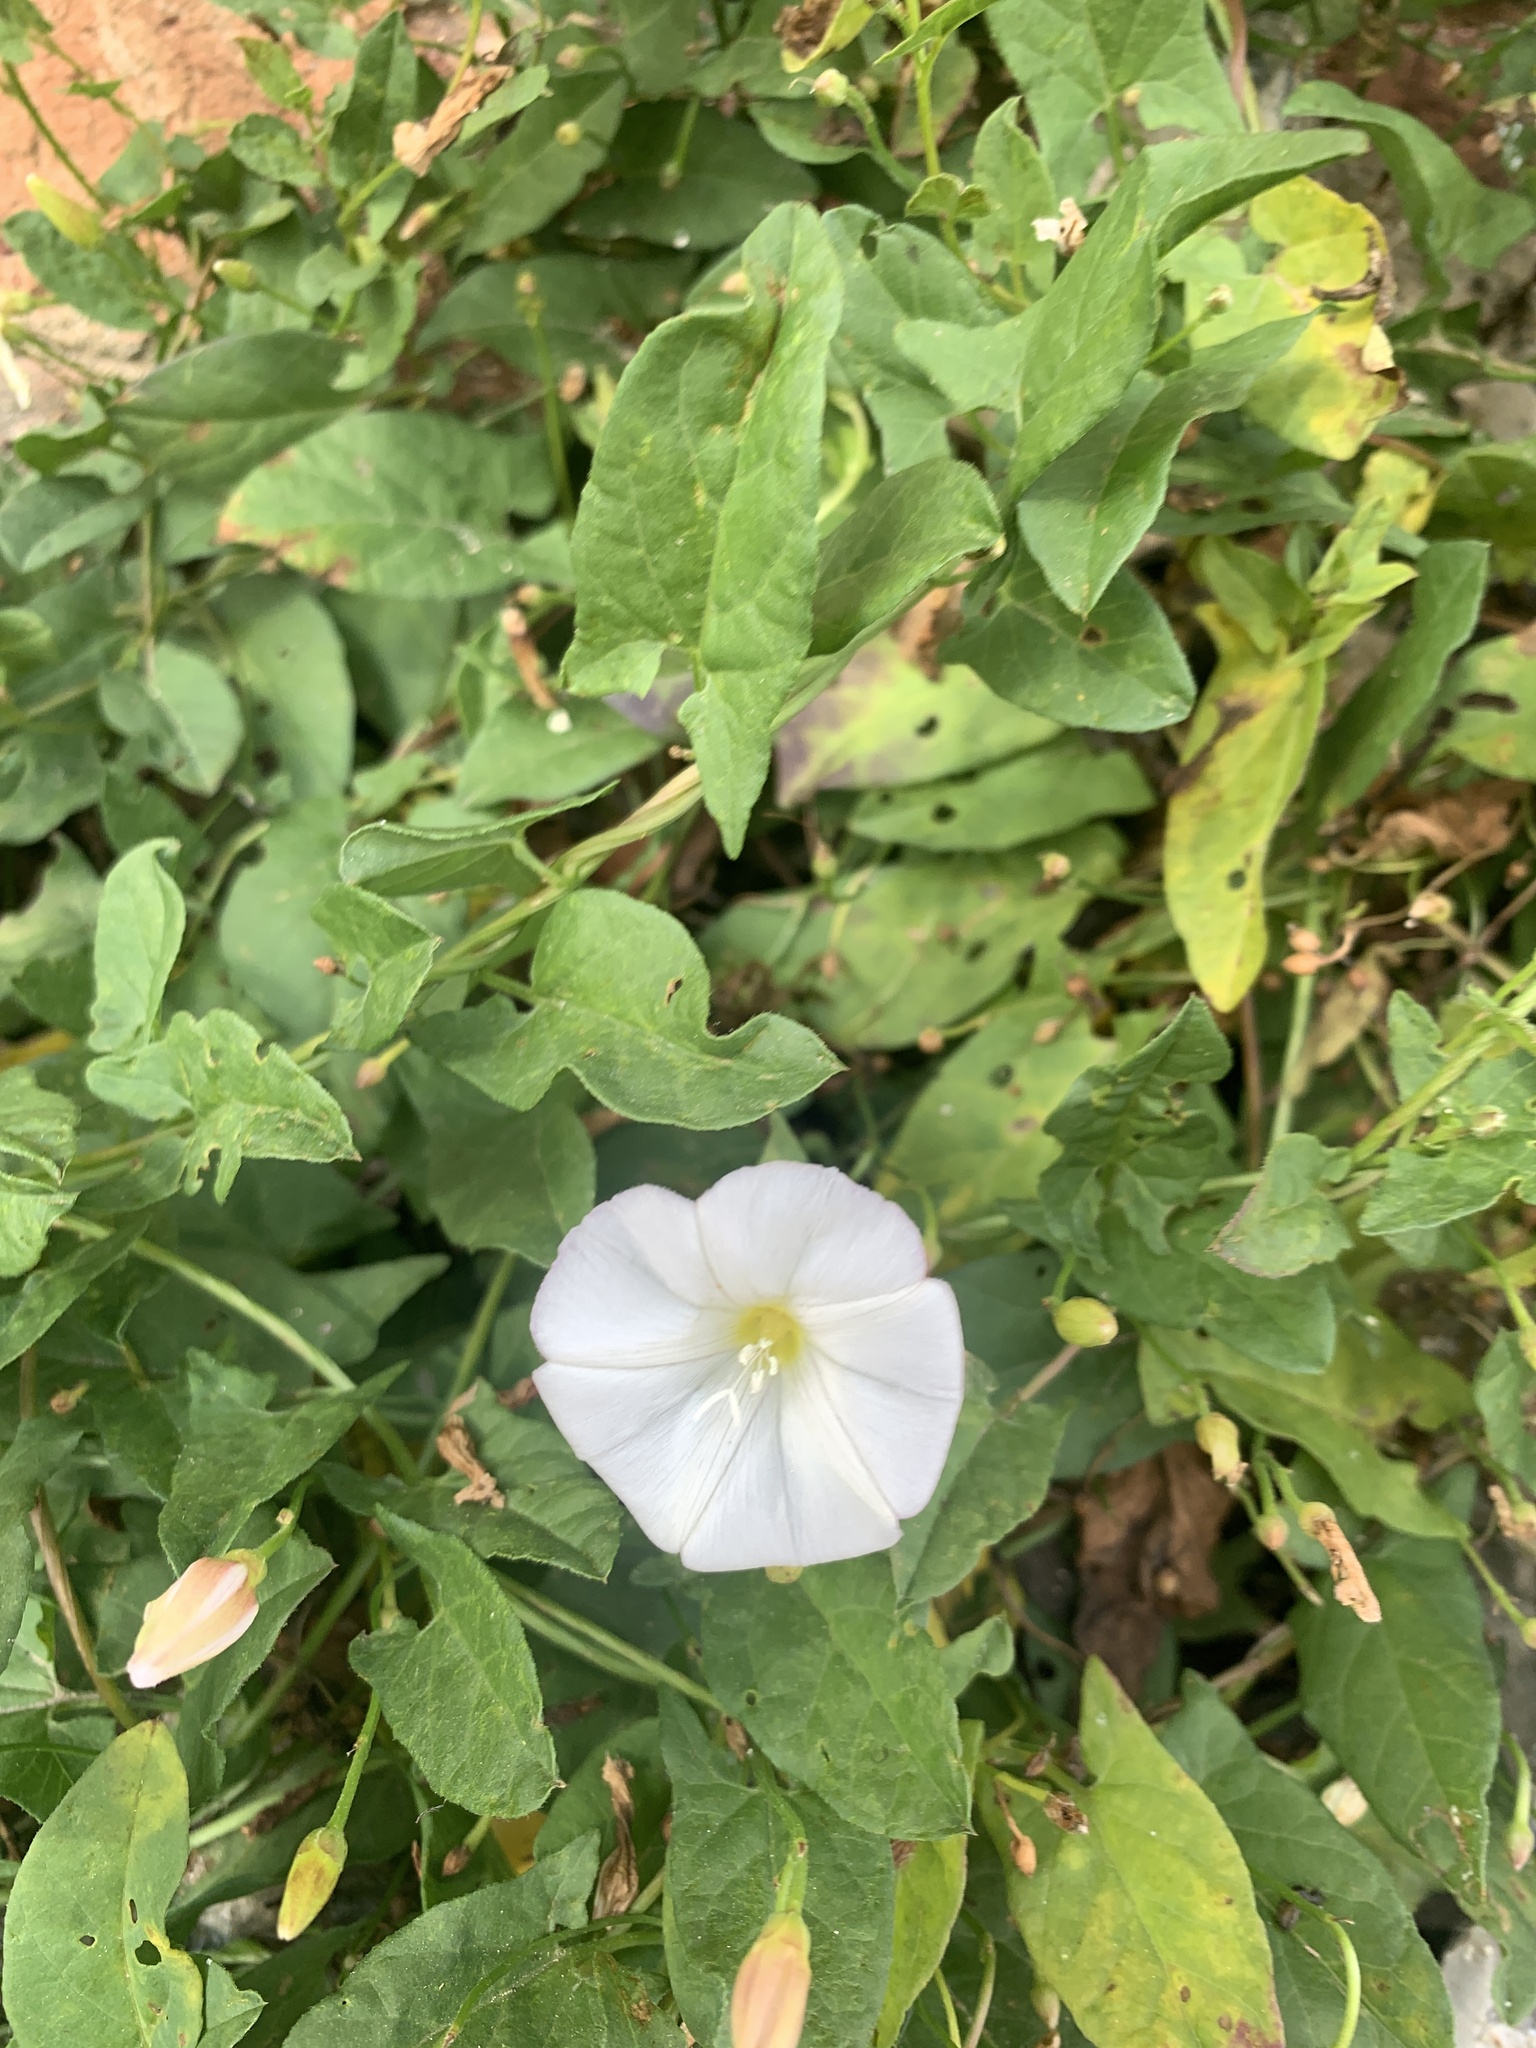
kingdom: Plantae
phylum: Tracheophyta
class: Magnoliopsida
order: Solanales
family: Convolvulaceae
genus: Convolvulus
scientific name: Convolvulus arvensis
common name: Field bindweed
